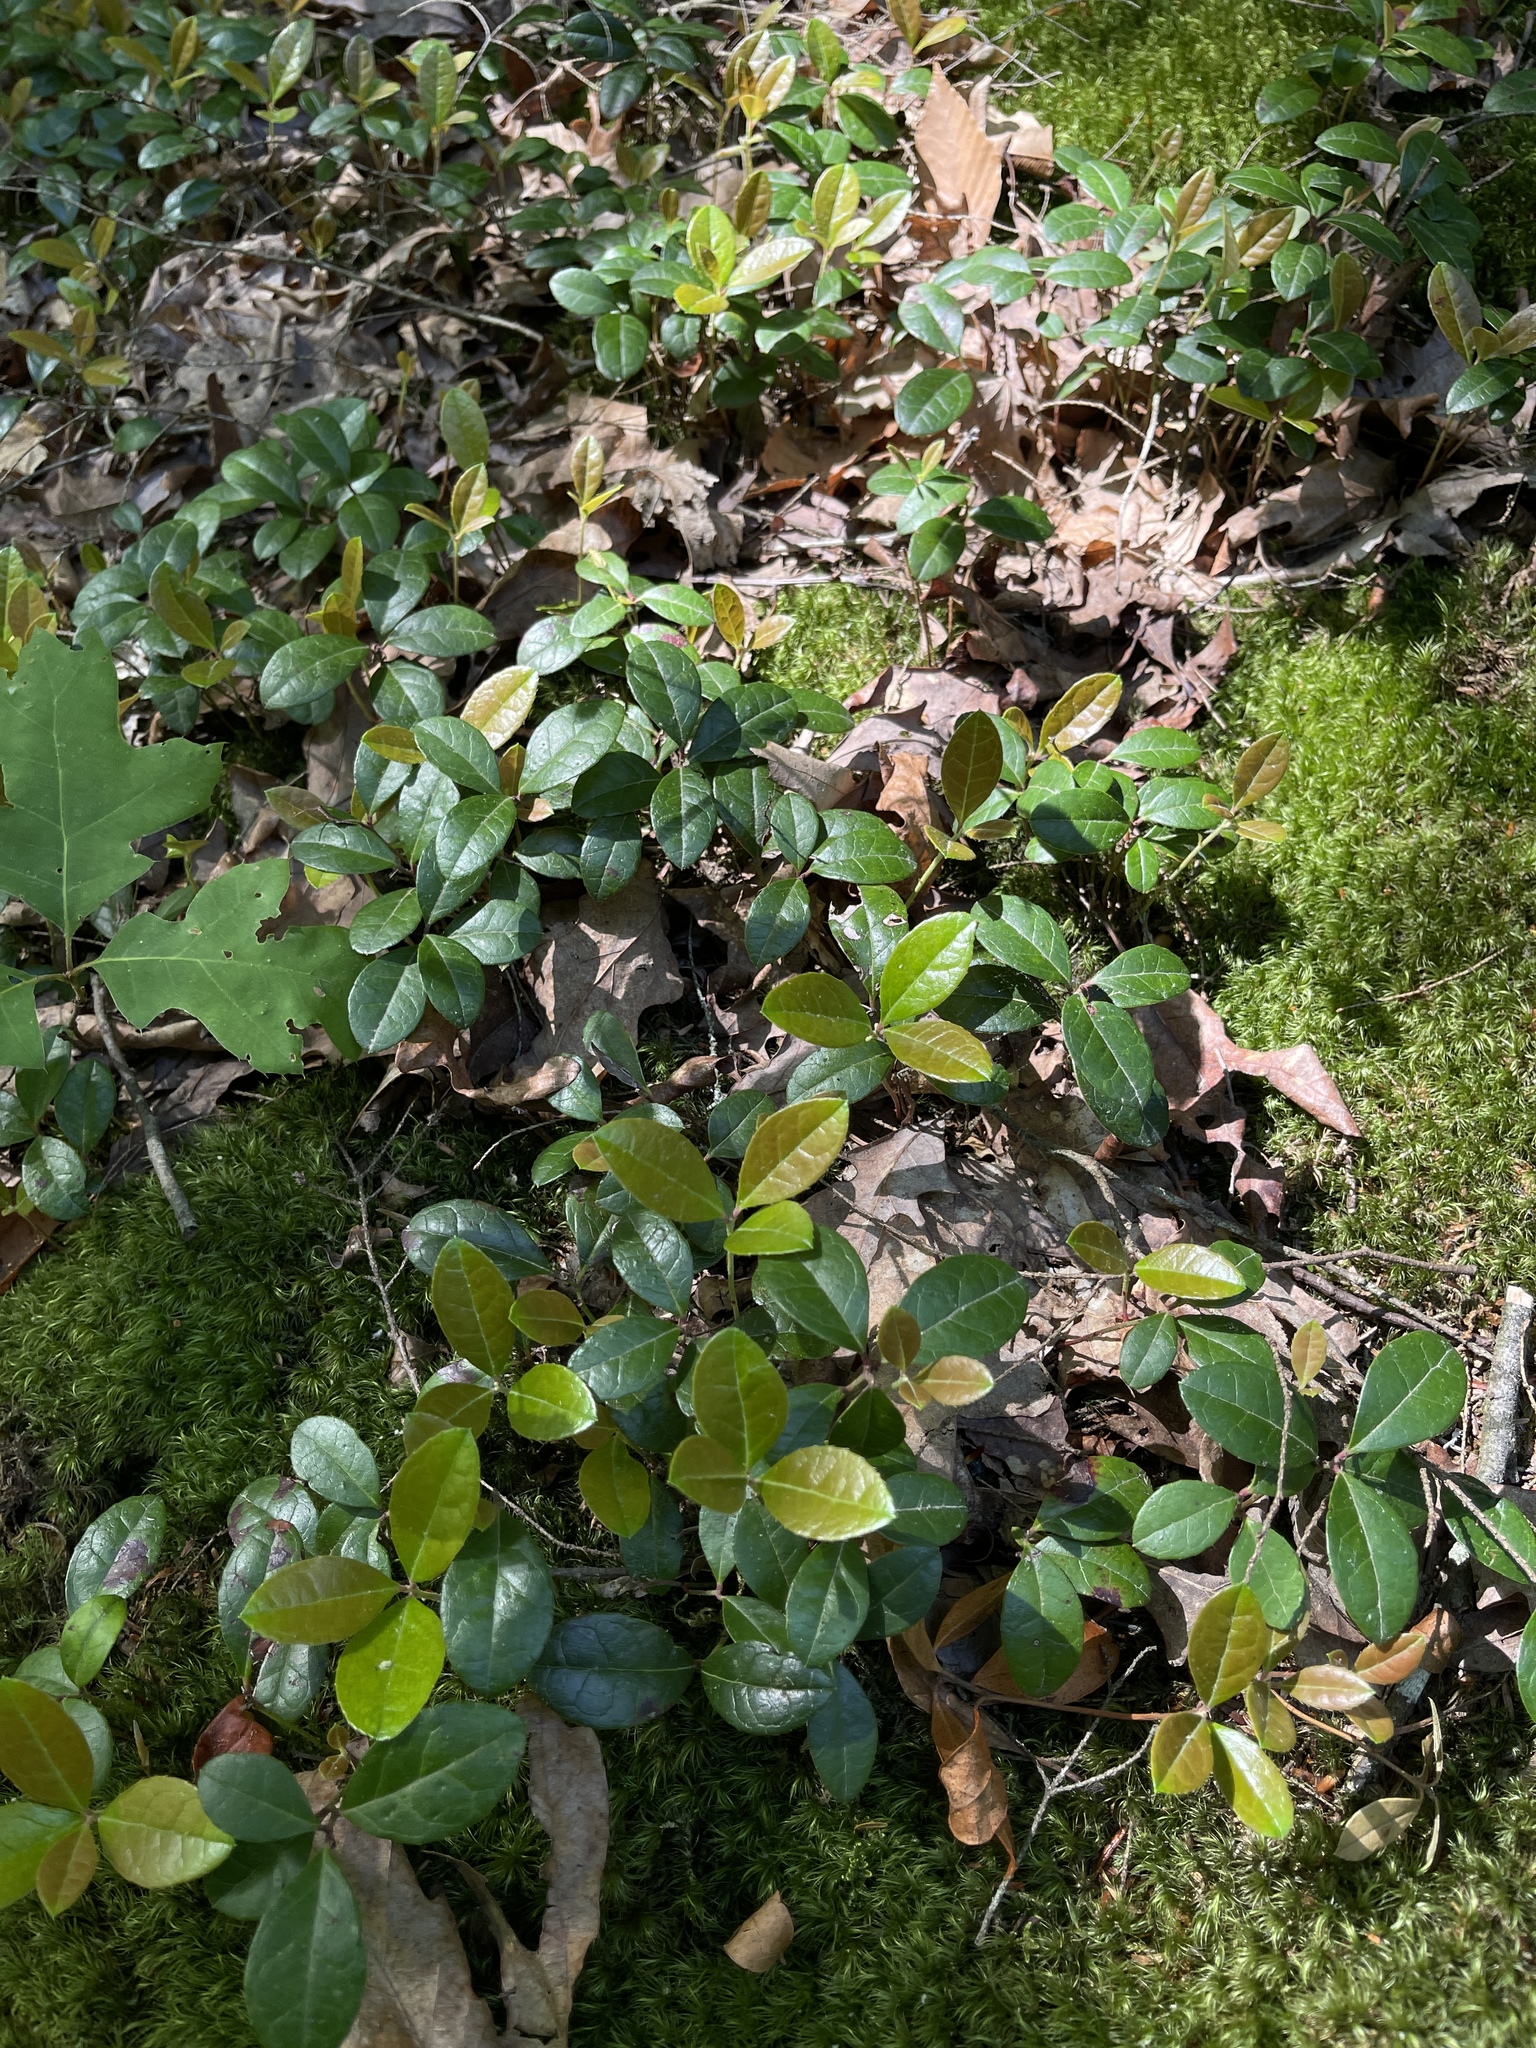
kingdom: Plantae
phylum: Tracheophyta
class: Magnoliopsida
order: Ericales
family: Ericaceae
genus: Gaultheria
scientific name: Gaultheria procumbens
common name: Checkerberry
